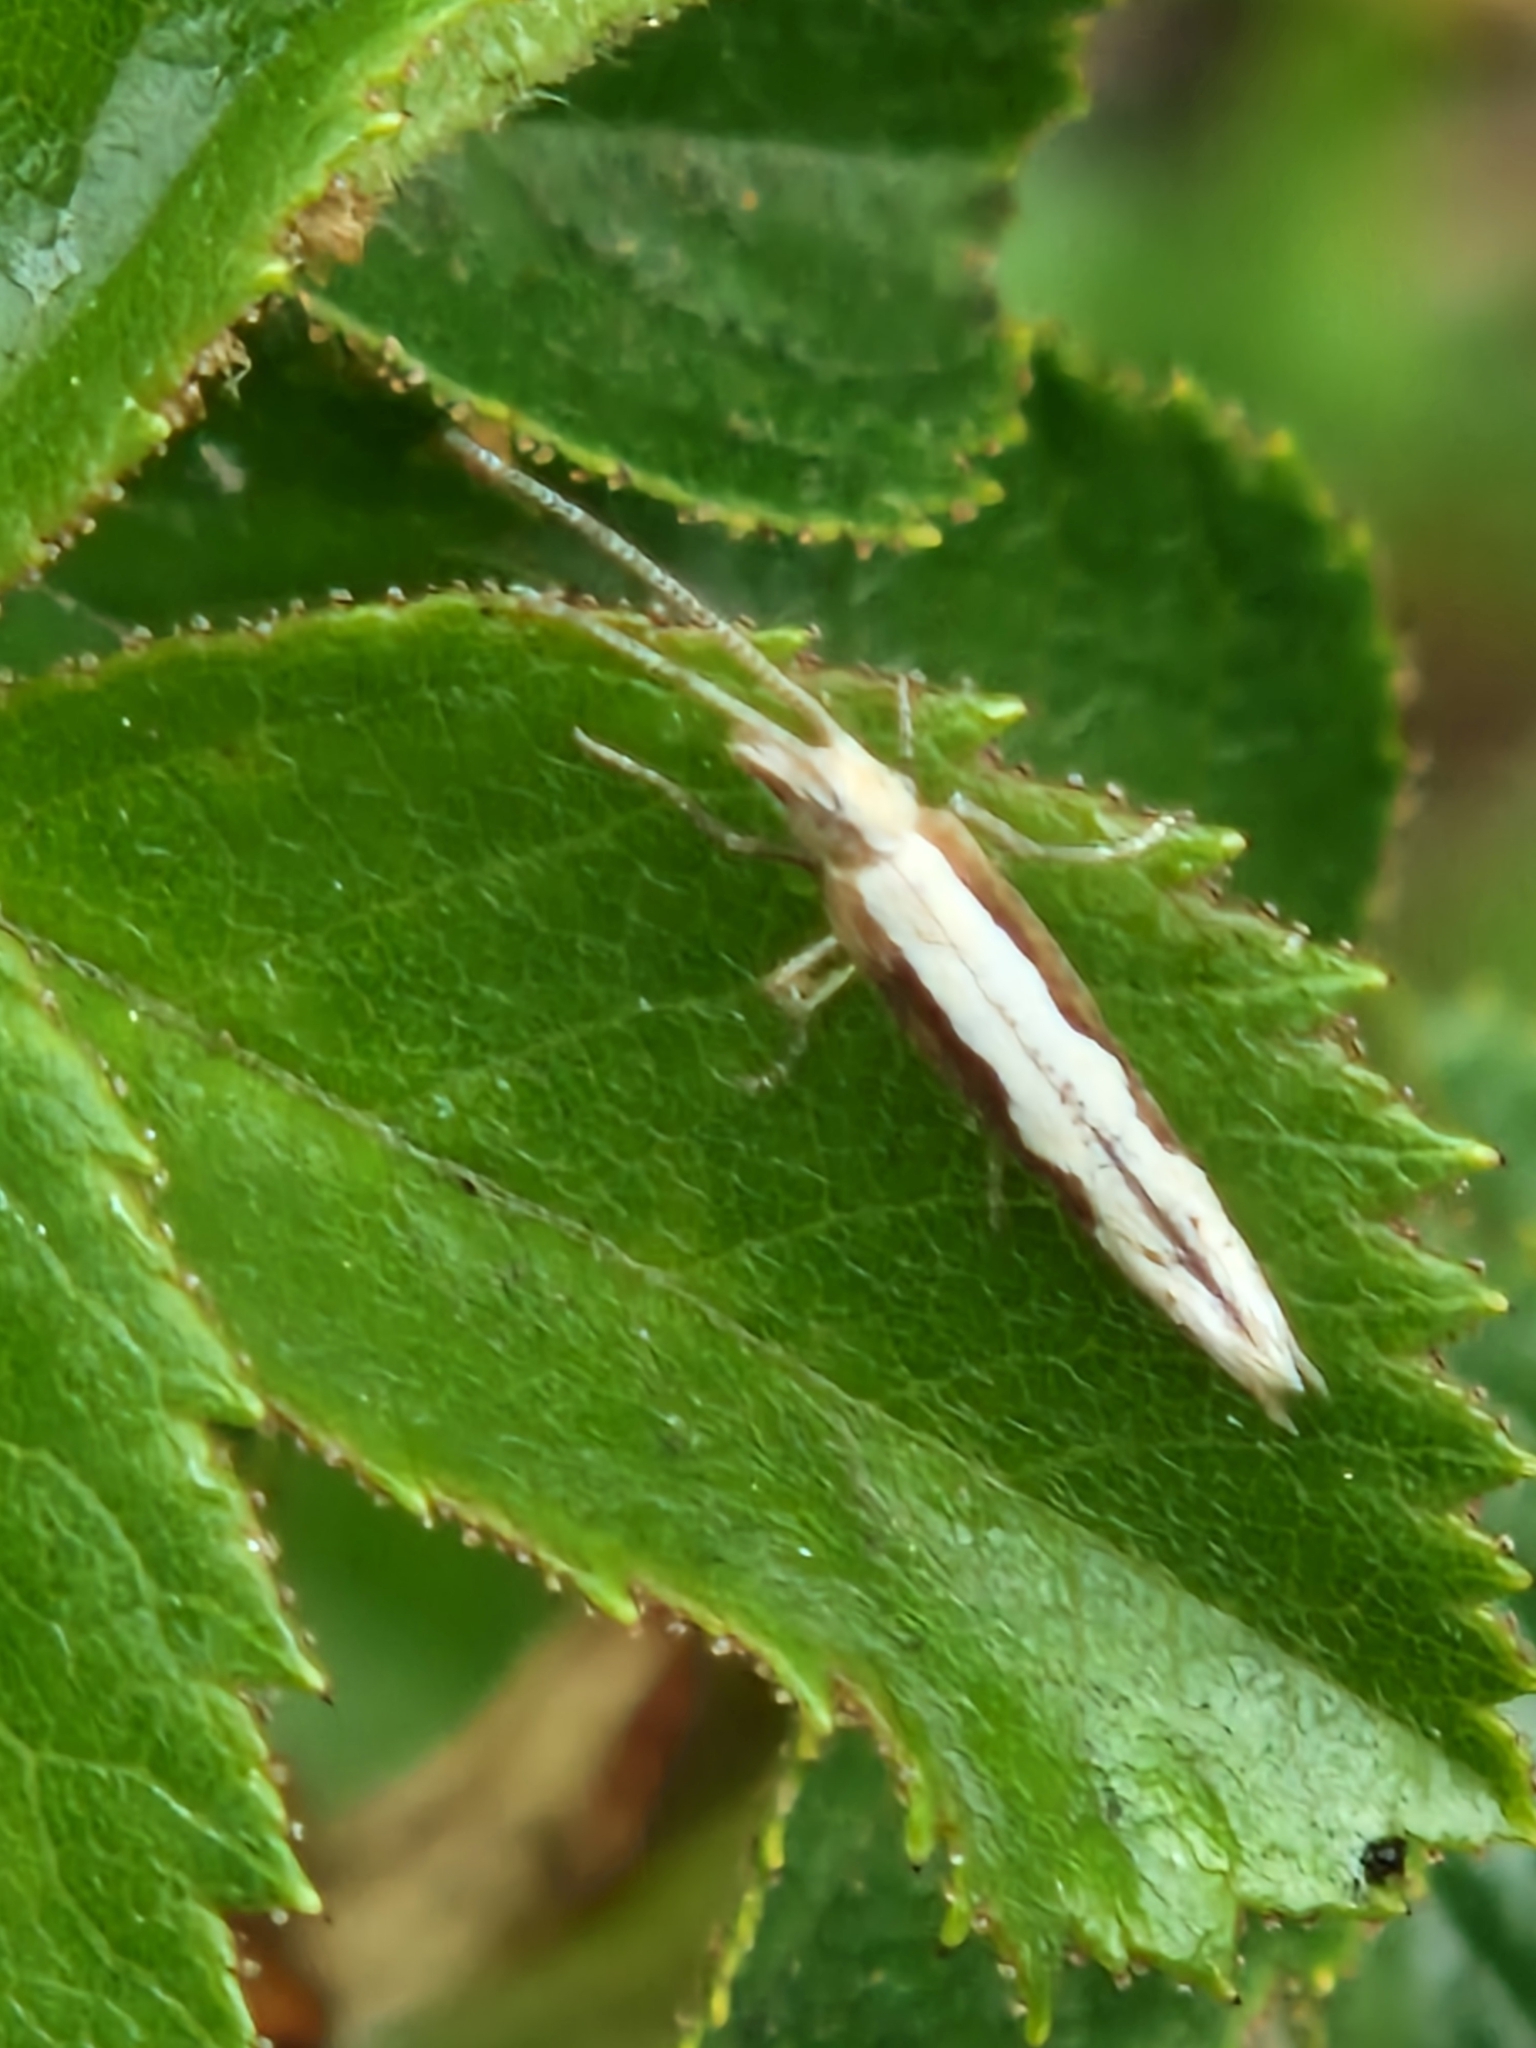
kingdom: Animalia
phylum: Arthropoda
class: Insecta
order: Lepidoptera
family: Plutellidae
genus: Plutella
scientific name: Plutella xylostella
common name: Diamond-back moth
